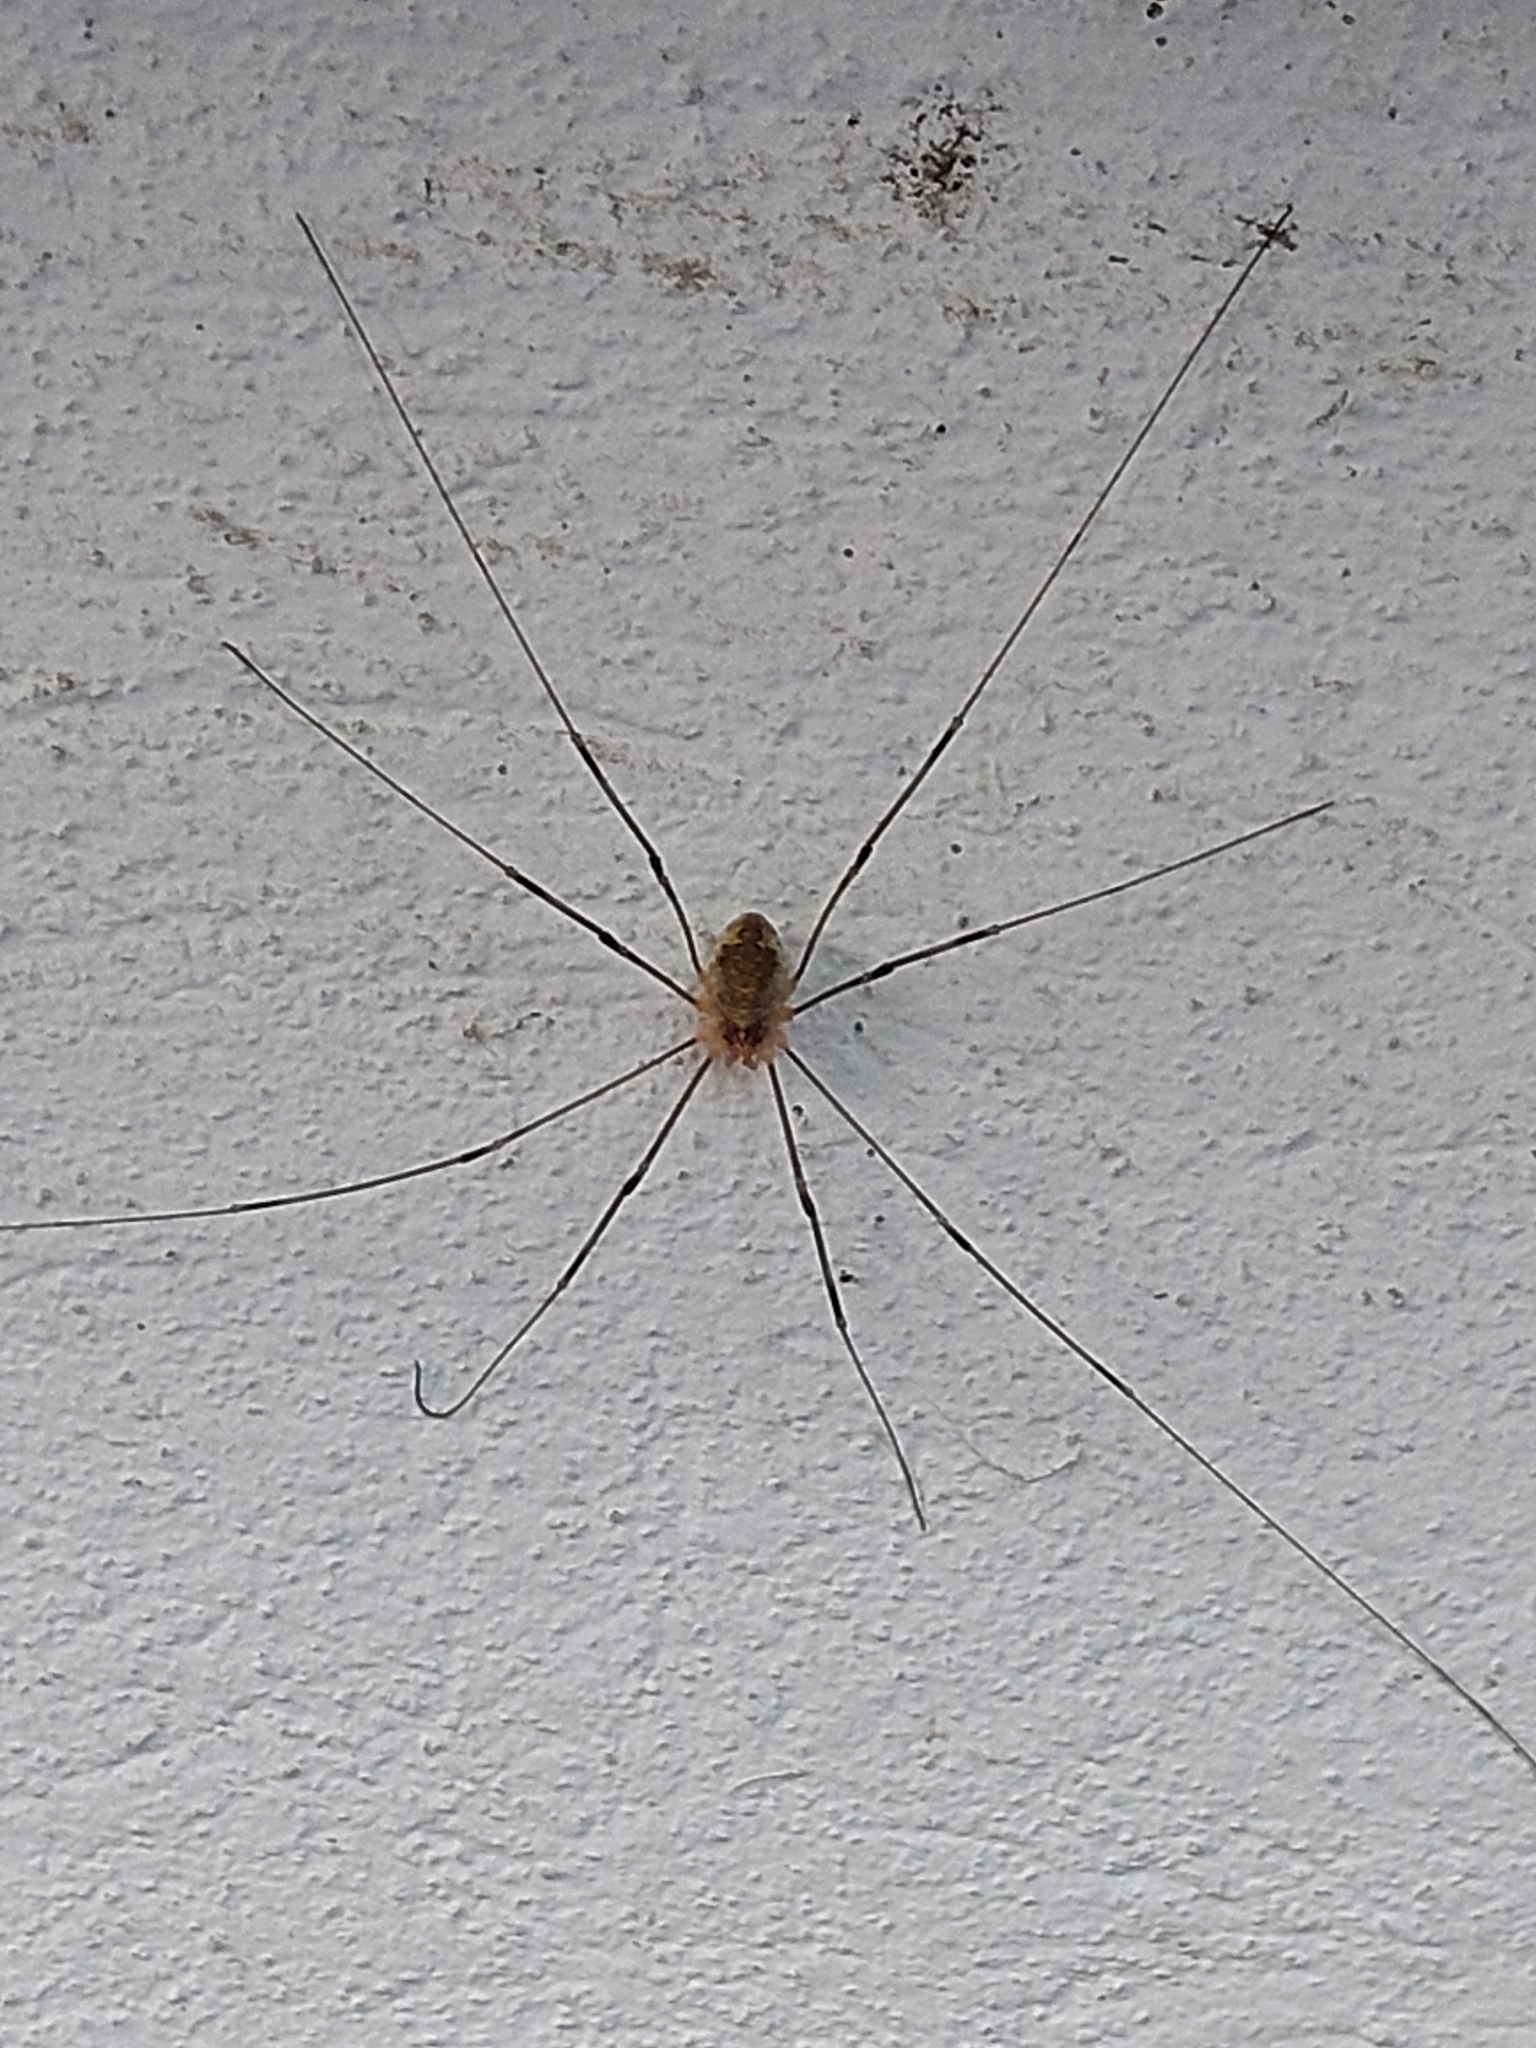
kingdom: Animalia
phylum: Arthropoda
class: Arachnida
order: Opiliones
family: Phalangiidae
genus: Opilio
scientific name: Opilio canestrinii
